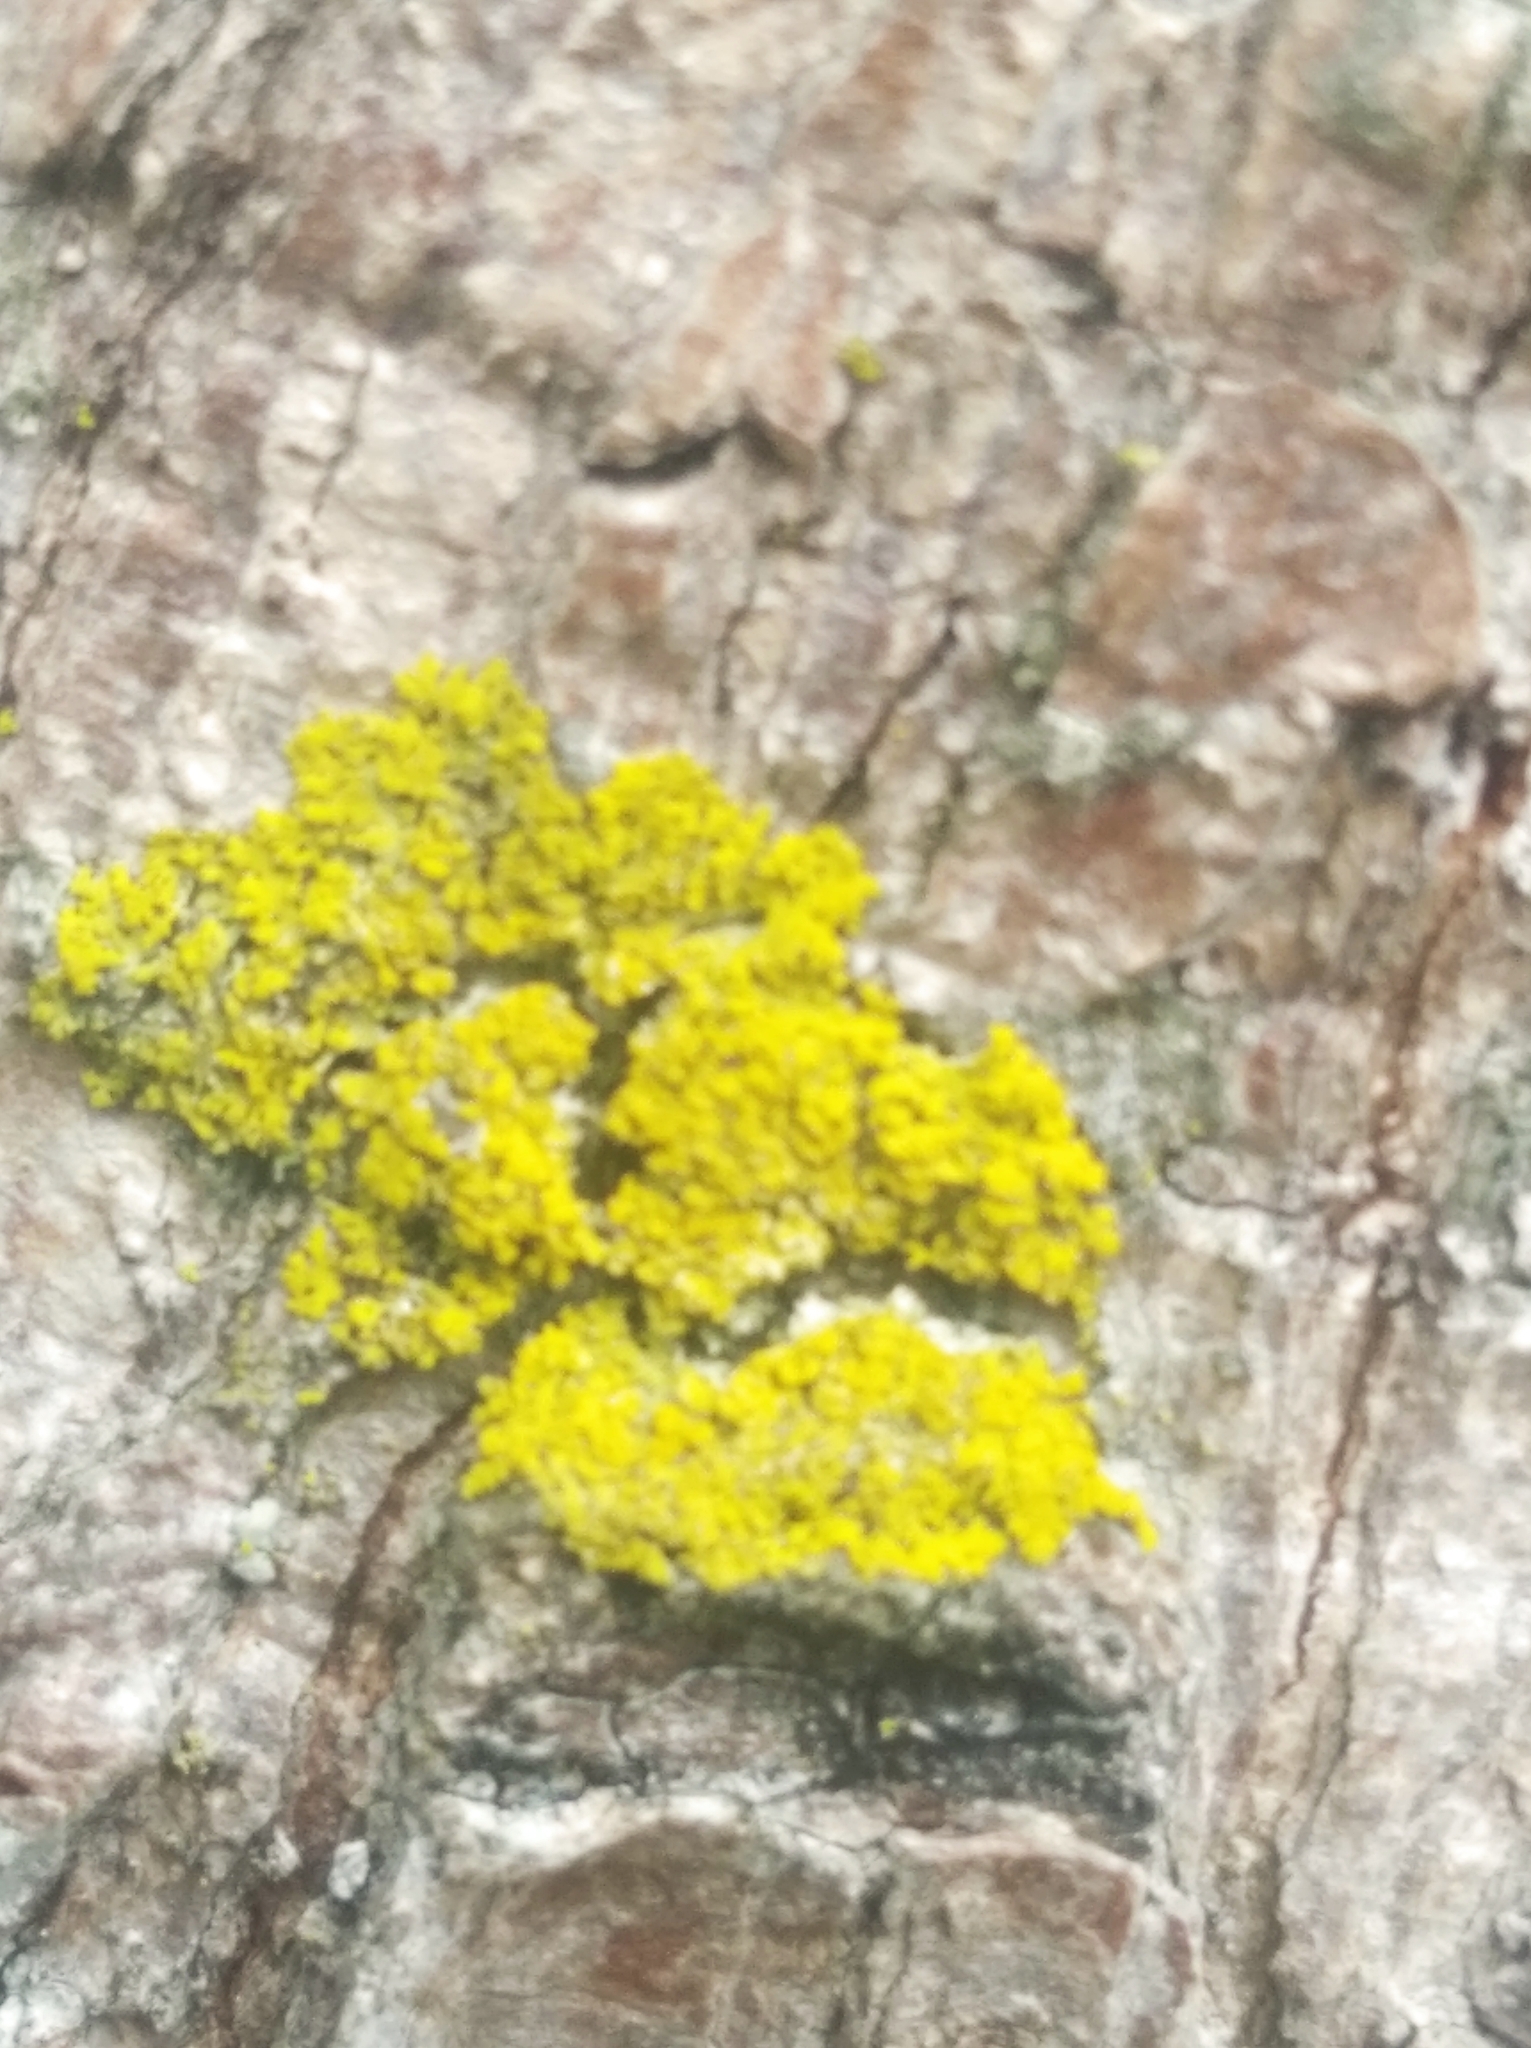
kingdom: Fungi
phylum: Ascomycota
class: Candelariomycetes
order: Candelariales
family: Candelariaceae
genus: Candelaria
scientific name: Candelaria concolor
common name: Candleflame lichen
